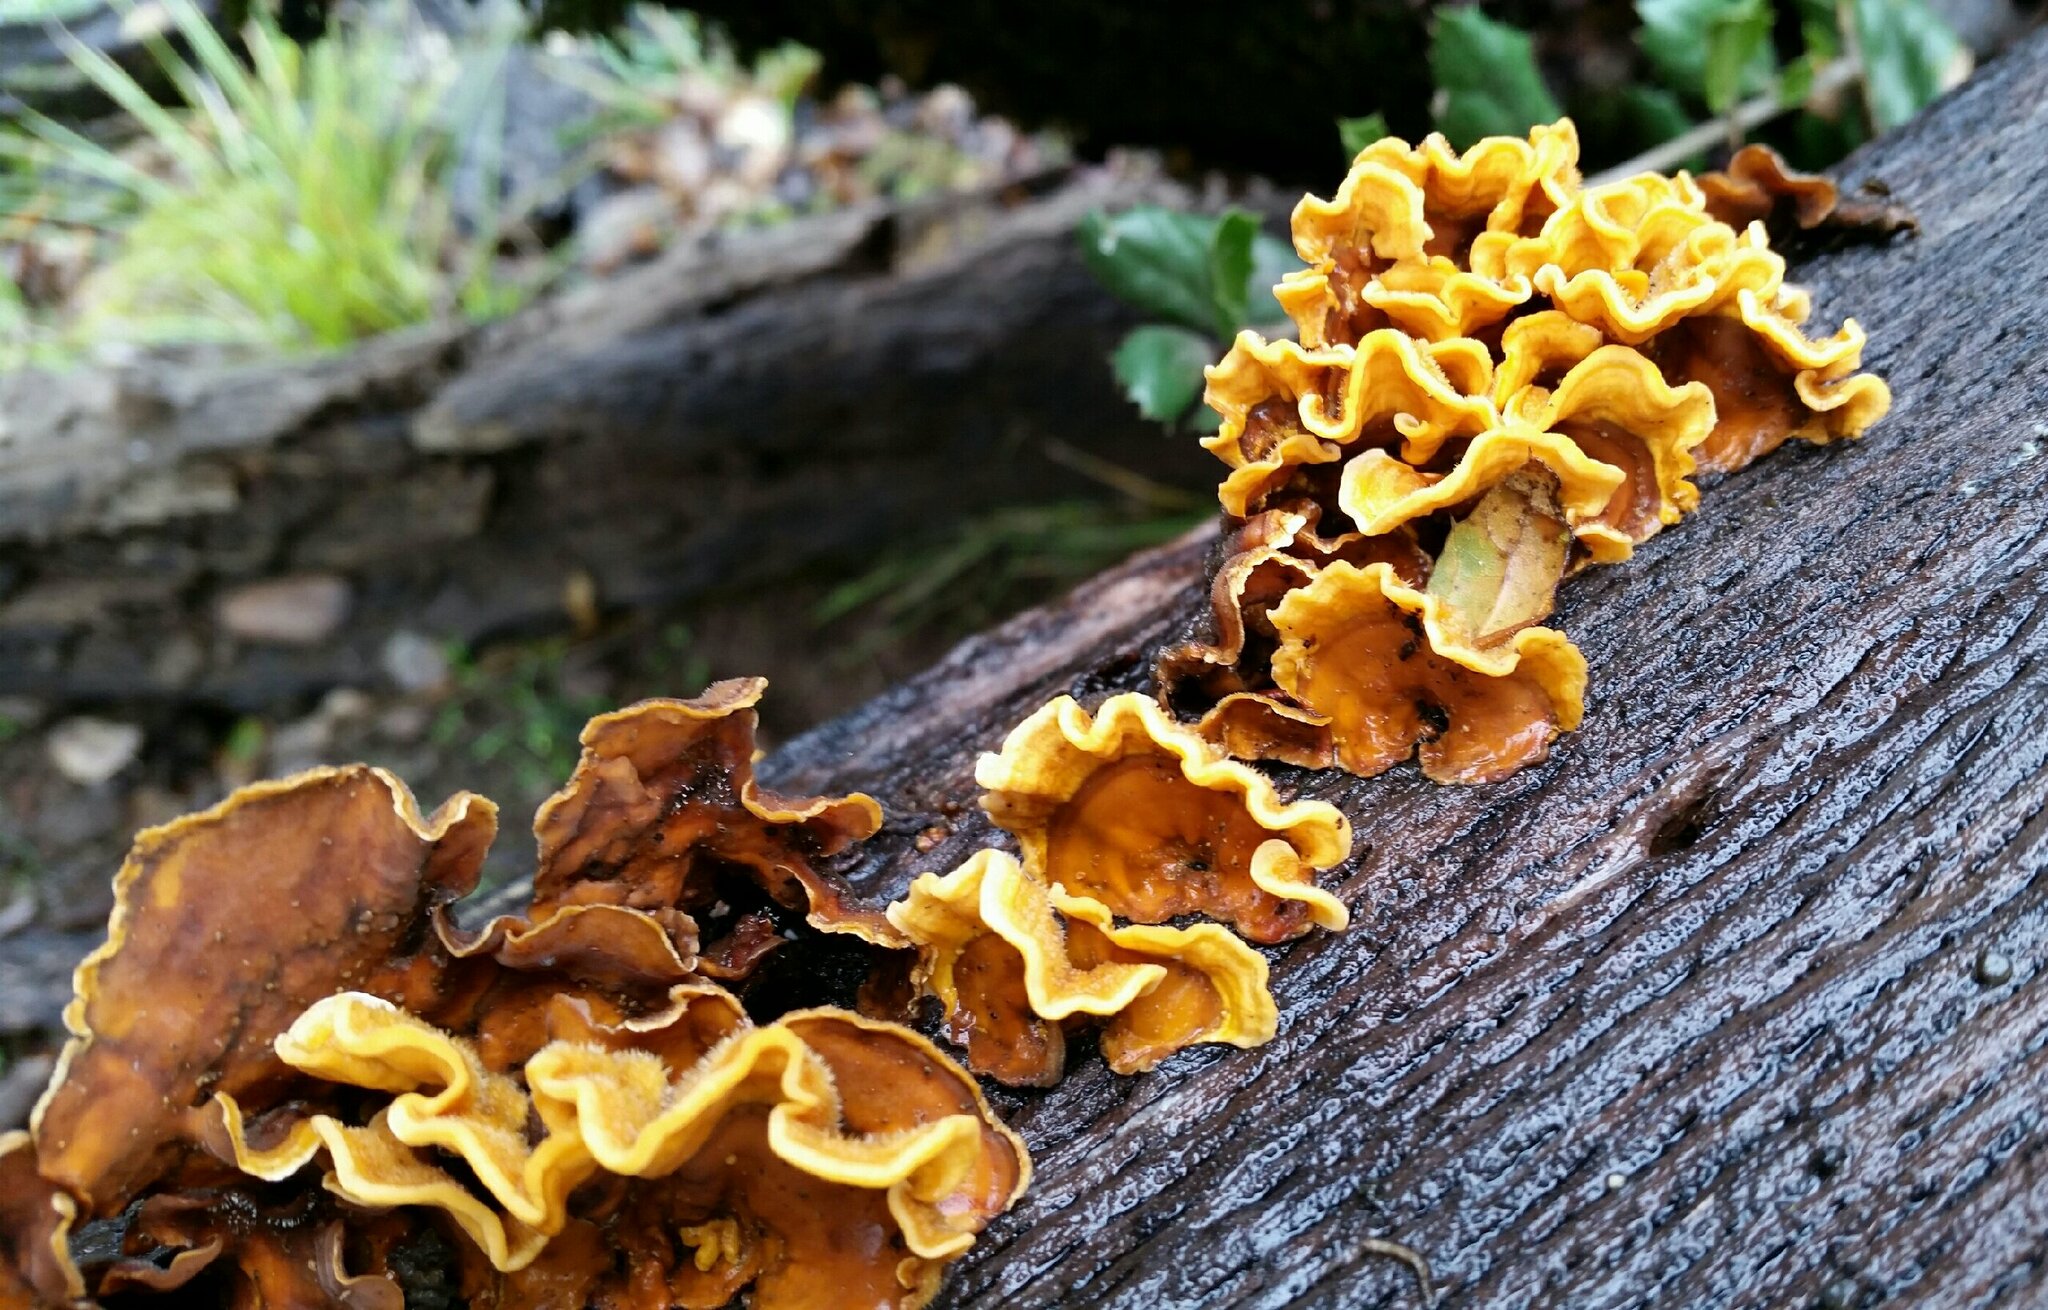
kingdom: Fungi
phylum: Basidiomycota
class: Agaricomycetes
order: Russulales
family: Stereaceae
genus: Stereum
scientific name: Stereum hirsutum
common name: Hairy curtain crust
